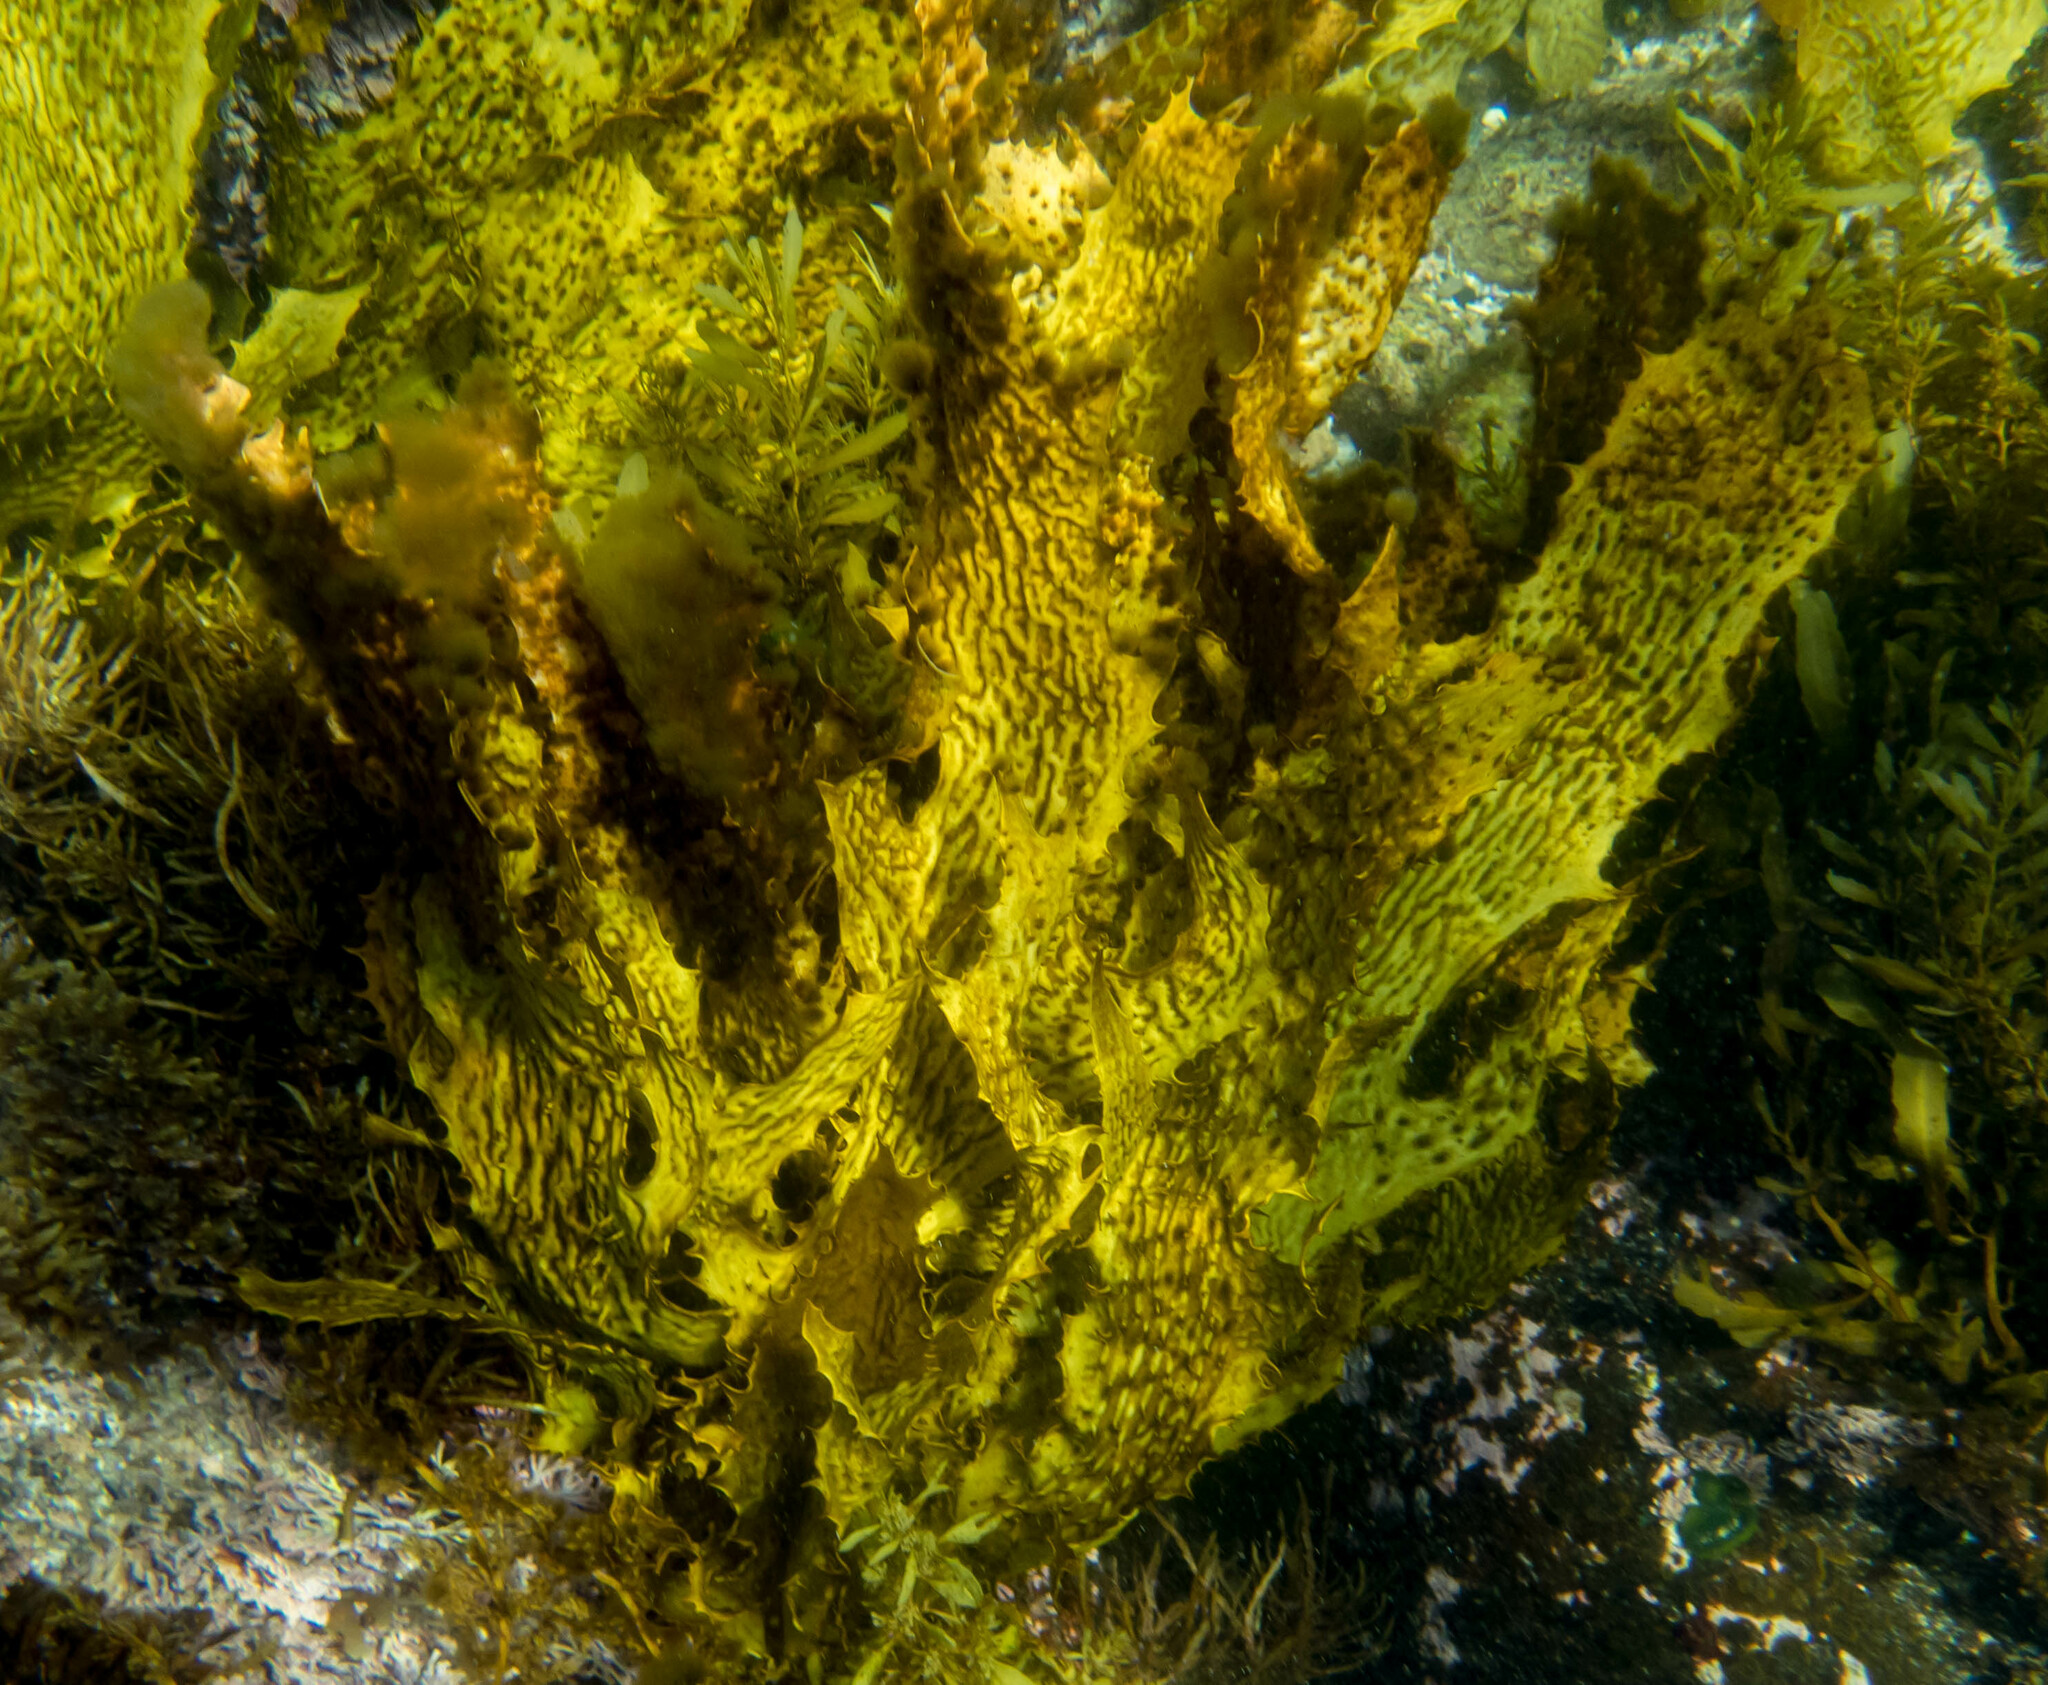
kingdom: Chromista
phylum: Ochrophyta
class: Phaeophyceae
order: Laminariales
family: Lessoniaceae
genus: Ecklonia
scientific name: Ecklonia radiata
